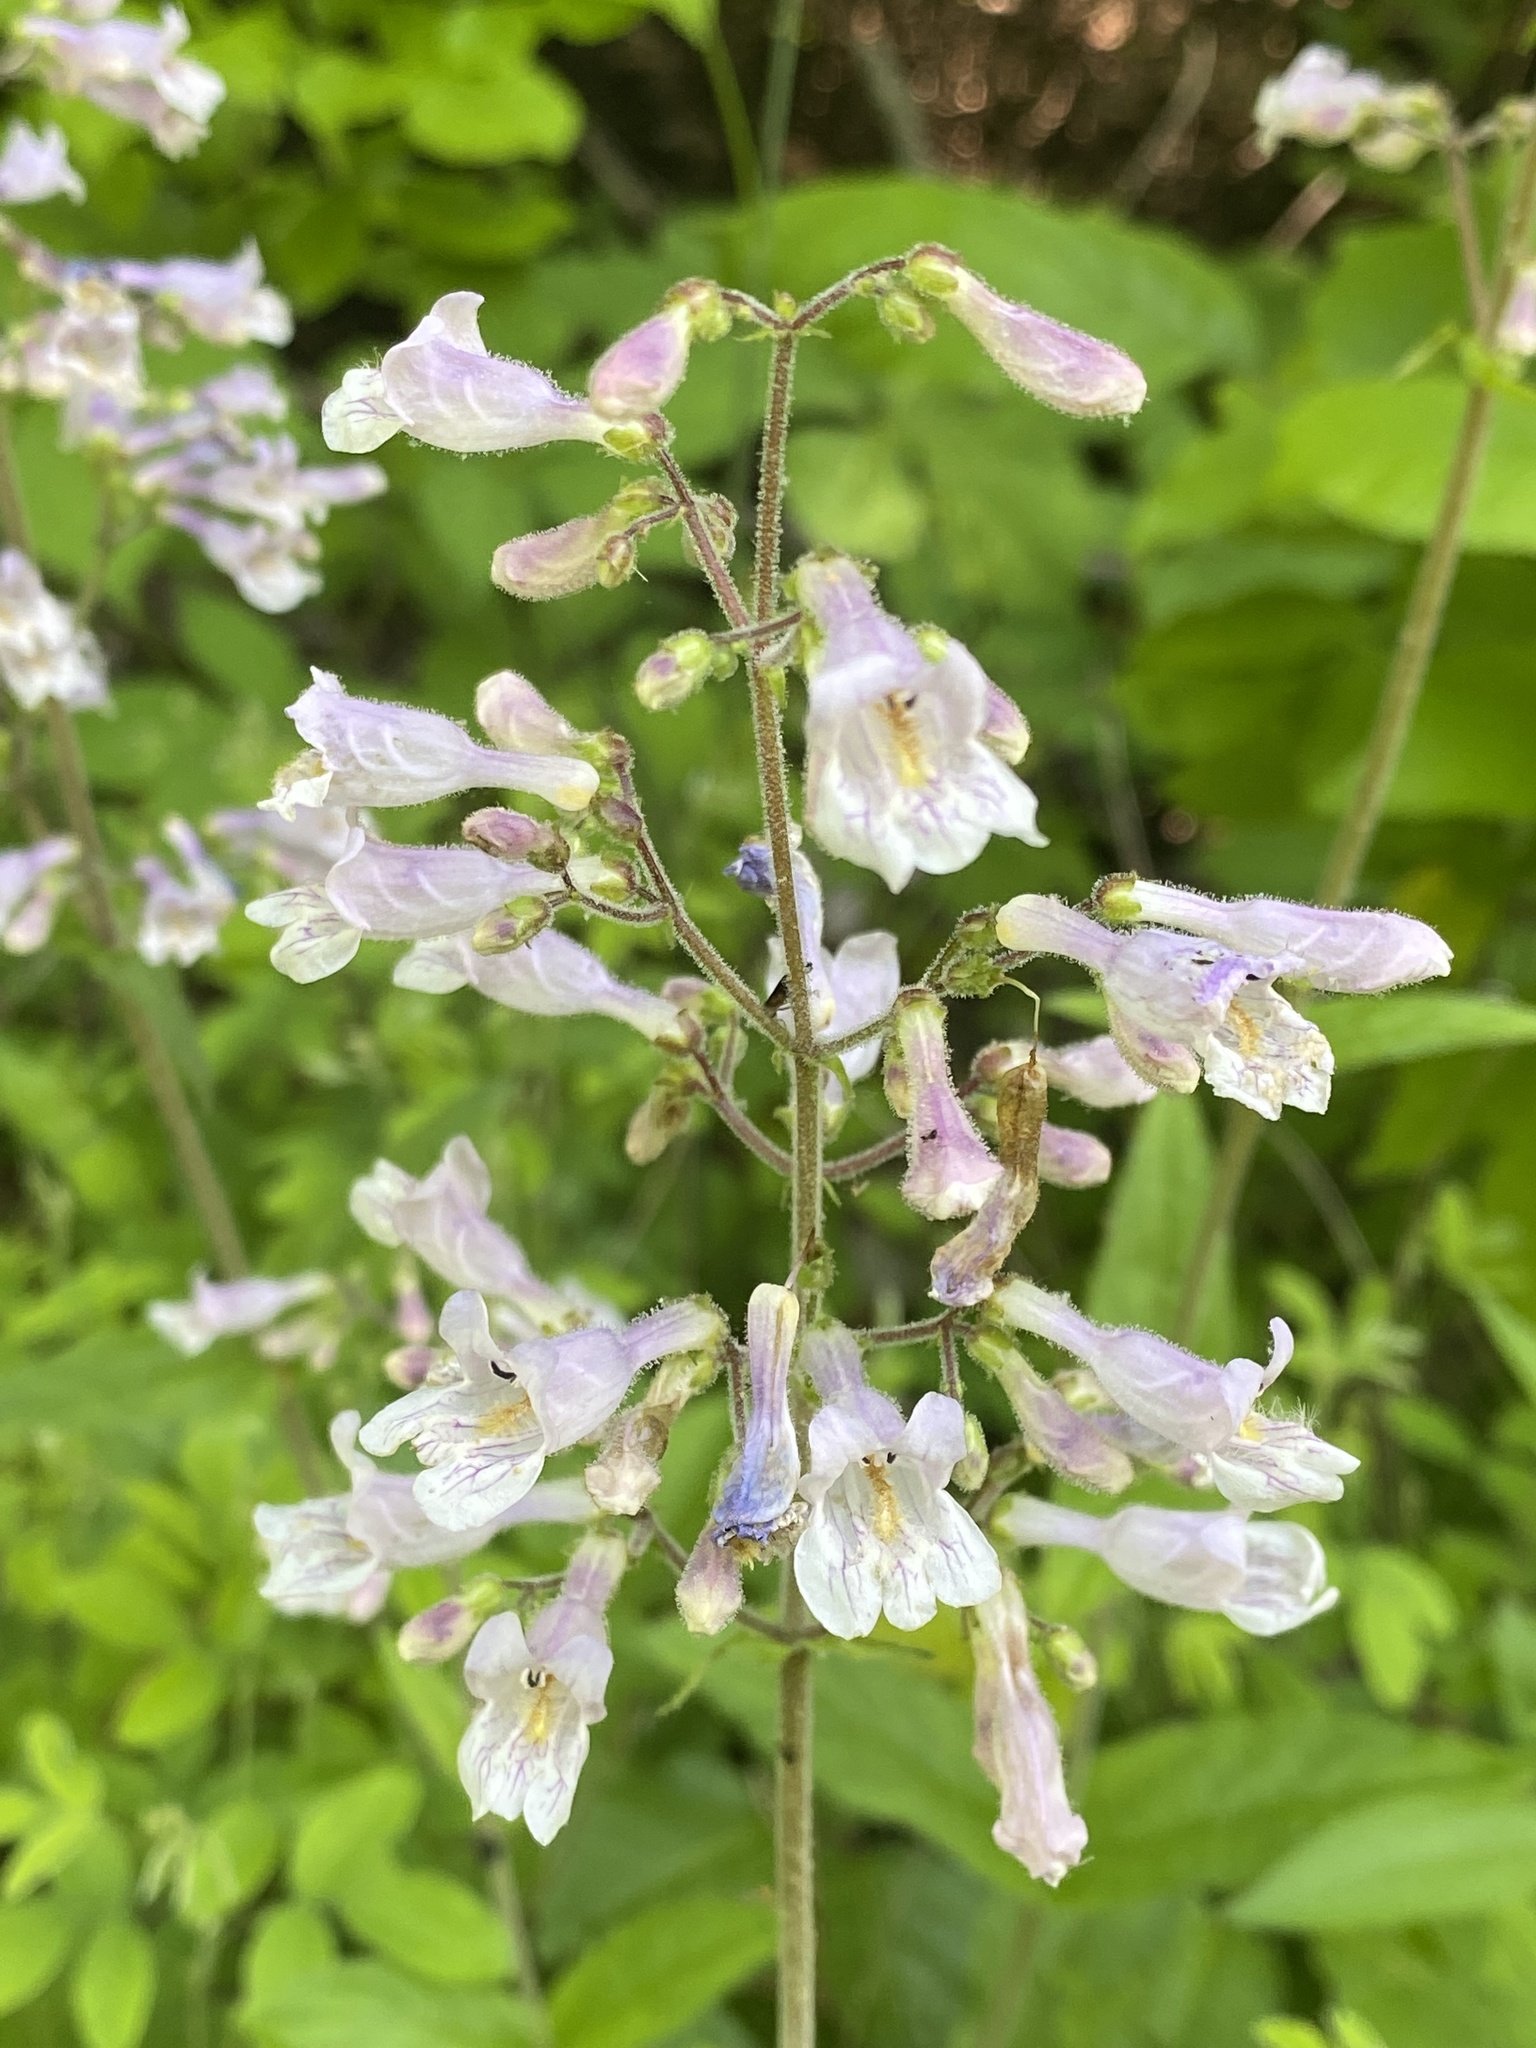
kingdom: Plantae
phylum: Tracheophyta
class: Magnoliopsida
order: Lamiales
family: Plantaginaceae
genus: Penstemon
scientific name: Penstemon brevisepalus
